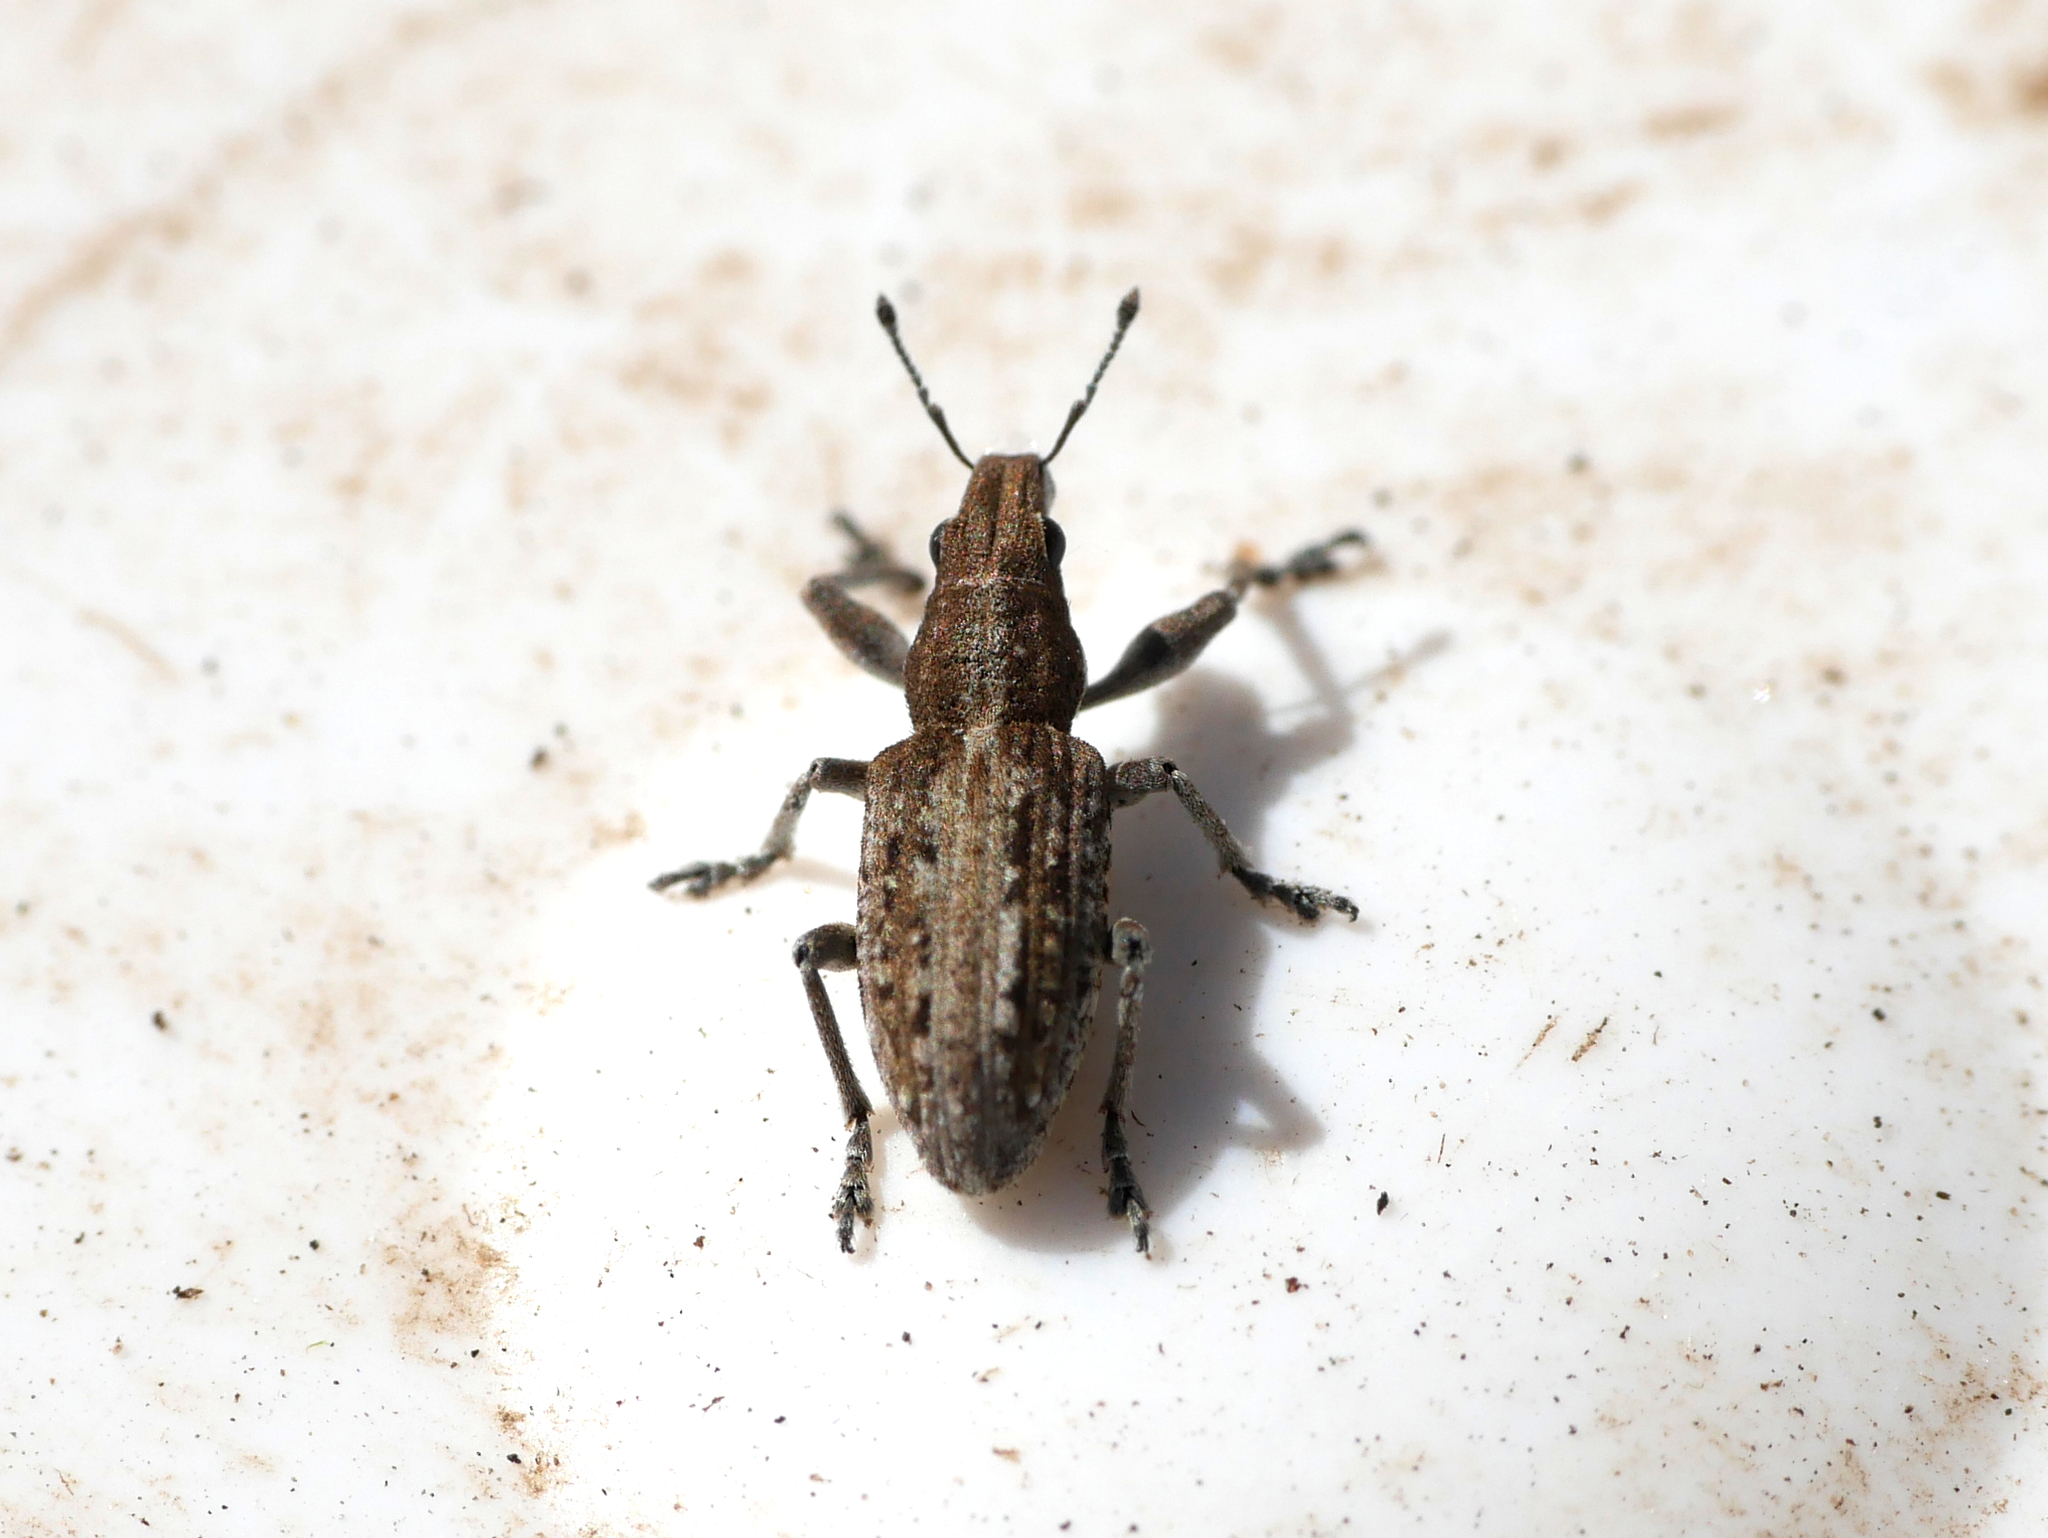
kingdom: Animalia
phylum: Arthropoda
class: Insecta
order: Coleoptera
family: Curculionidae
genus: Charagmus
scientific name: Charagmus griseus
